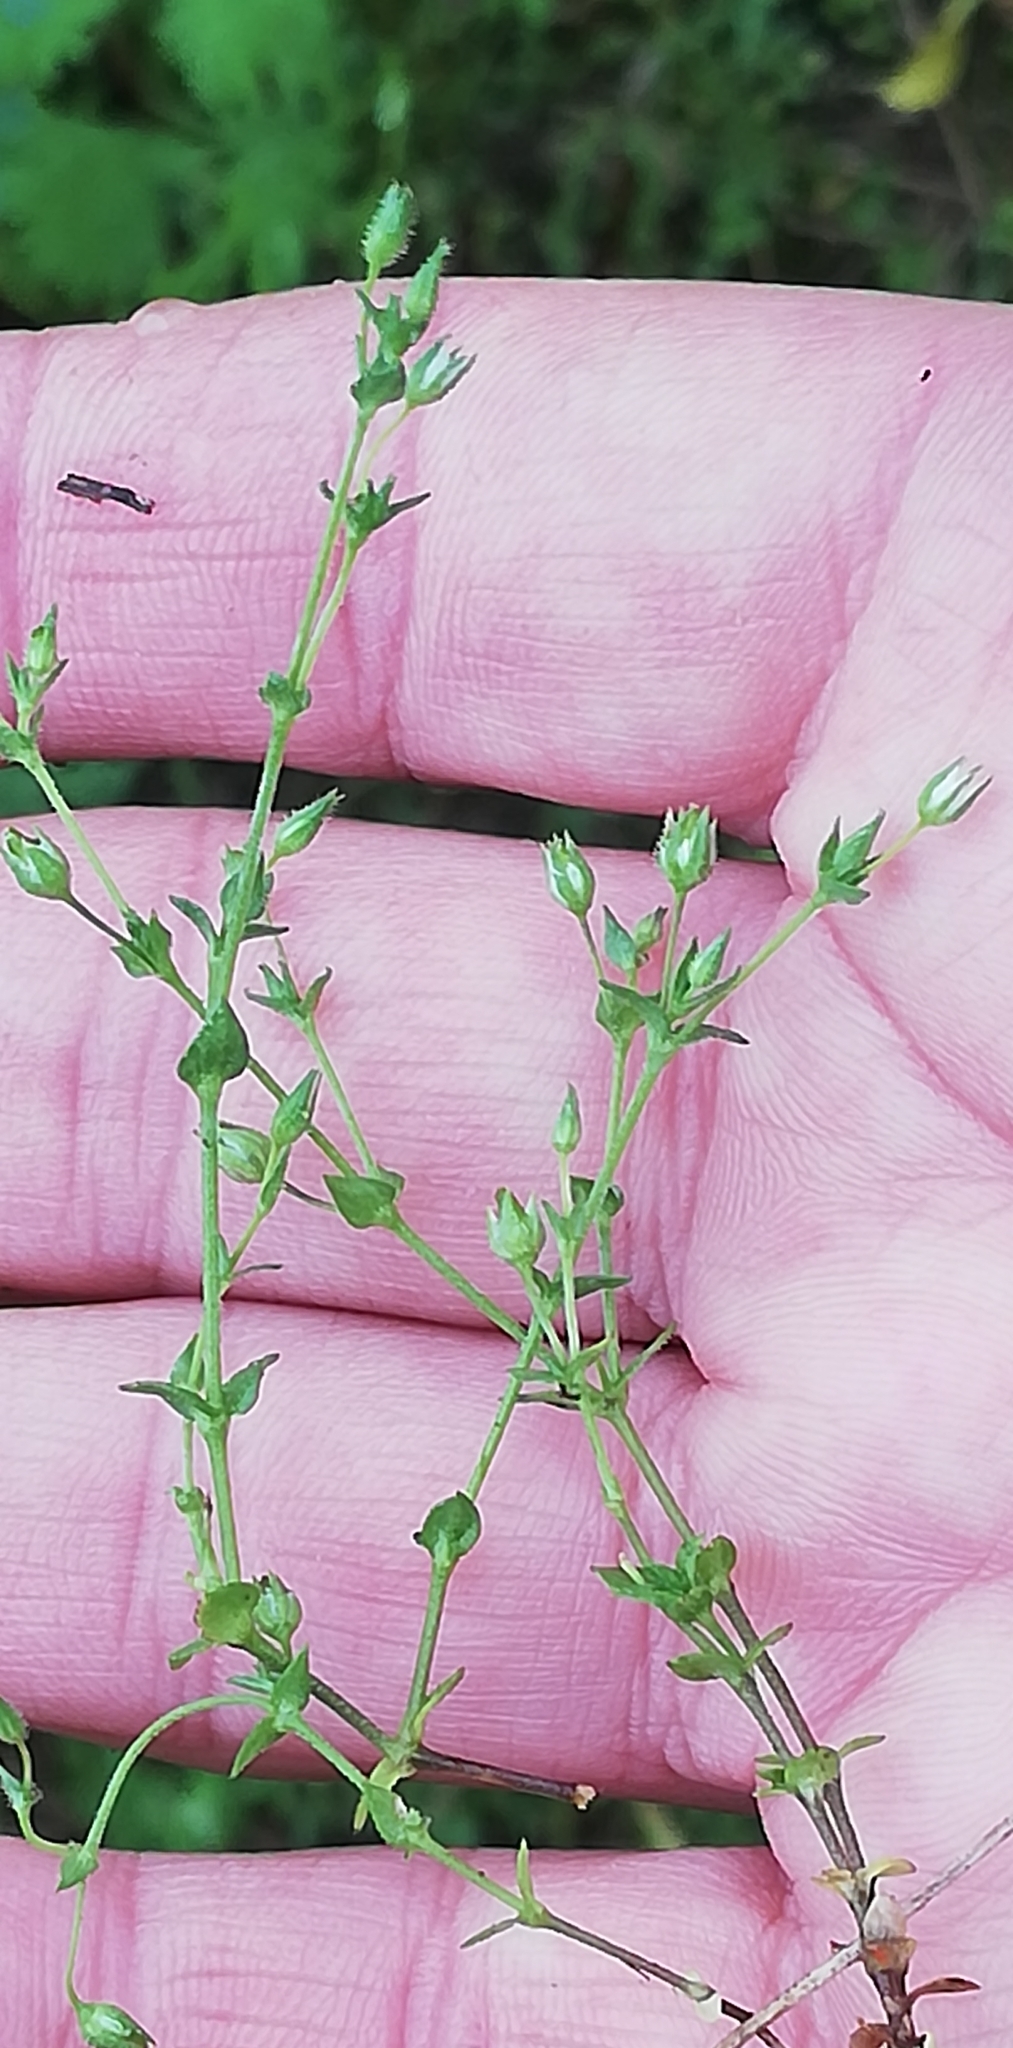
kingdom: Plantae
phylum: Tracheophyta
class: Magnoliopsida
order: Caryophyllales
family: Caryophyllaceae
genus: Arenaria
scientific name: Arenaria serpyllifolia
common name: Thyme-leaved sandwort
